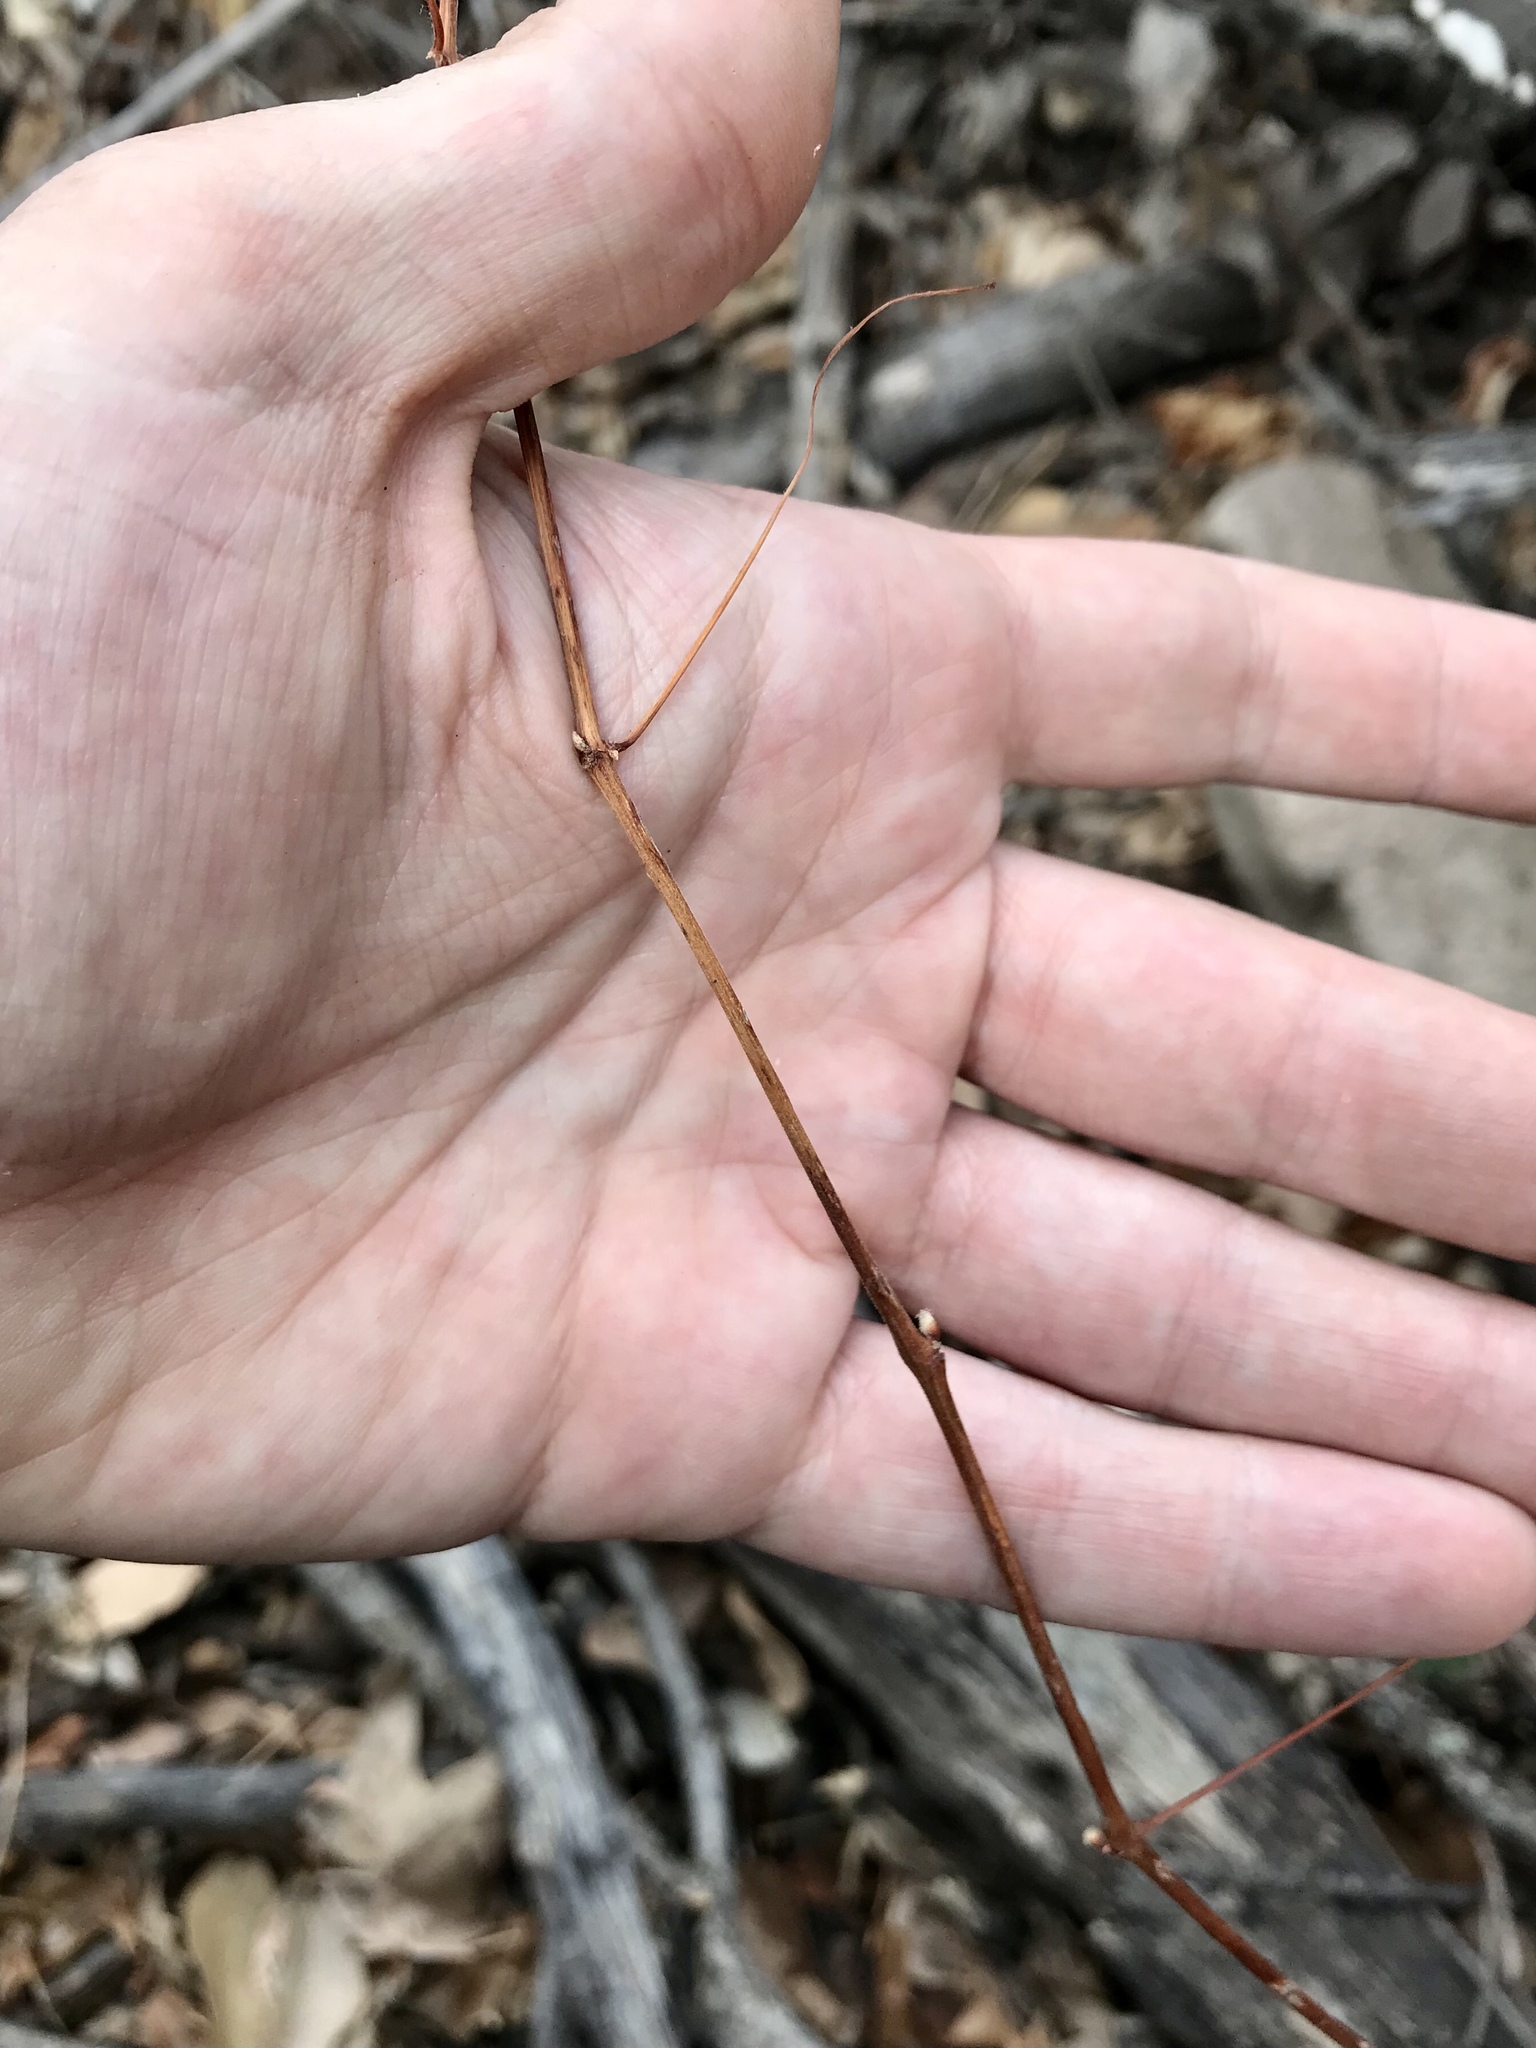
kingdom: Plantae
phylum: Tracheophyta
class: Magnoliopsida
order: Vitales
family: Vitaceae
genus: Vitis
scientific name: Vitis arizonica
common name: Canyon grape
